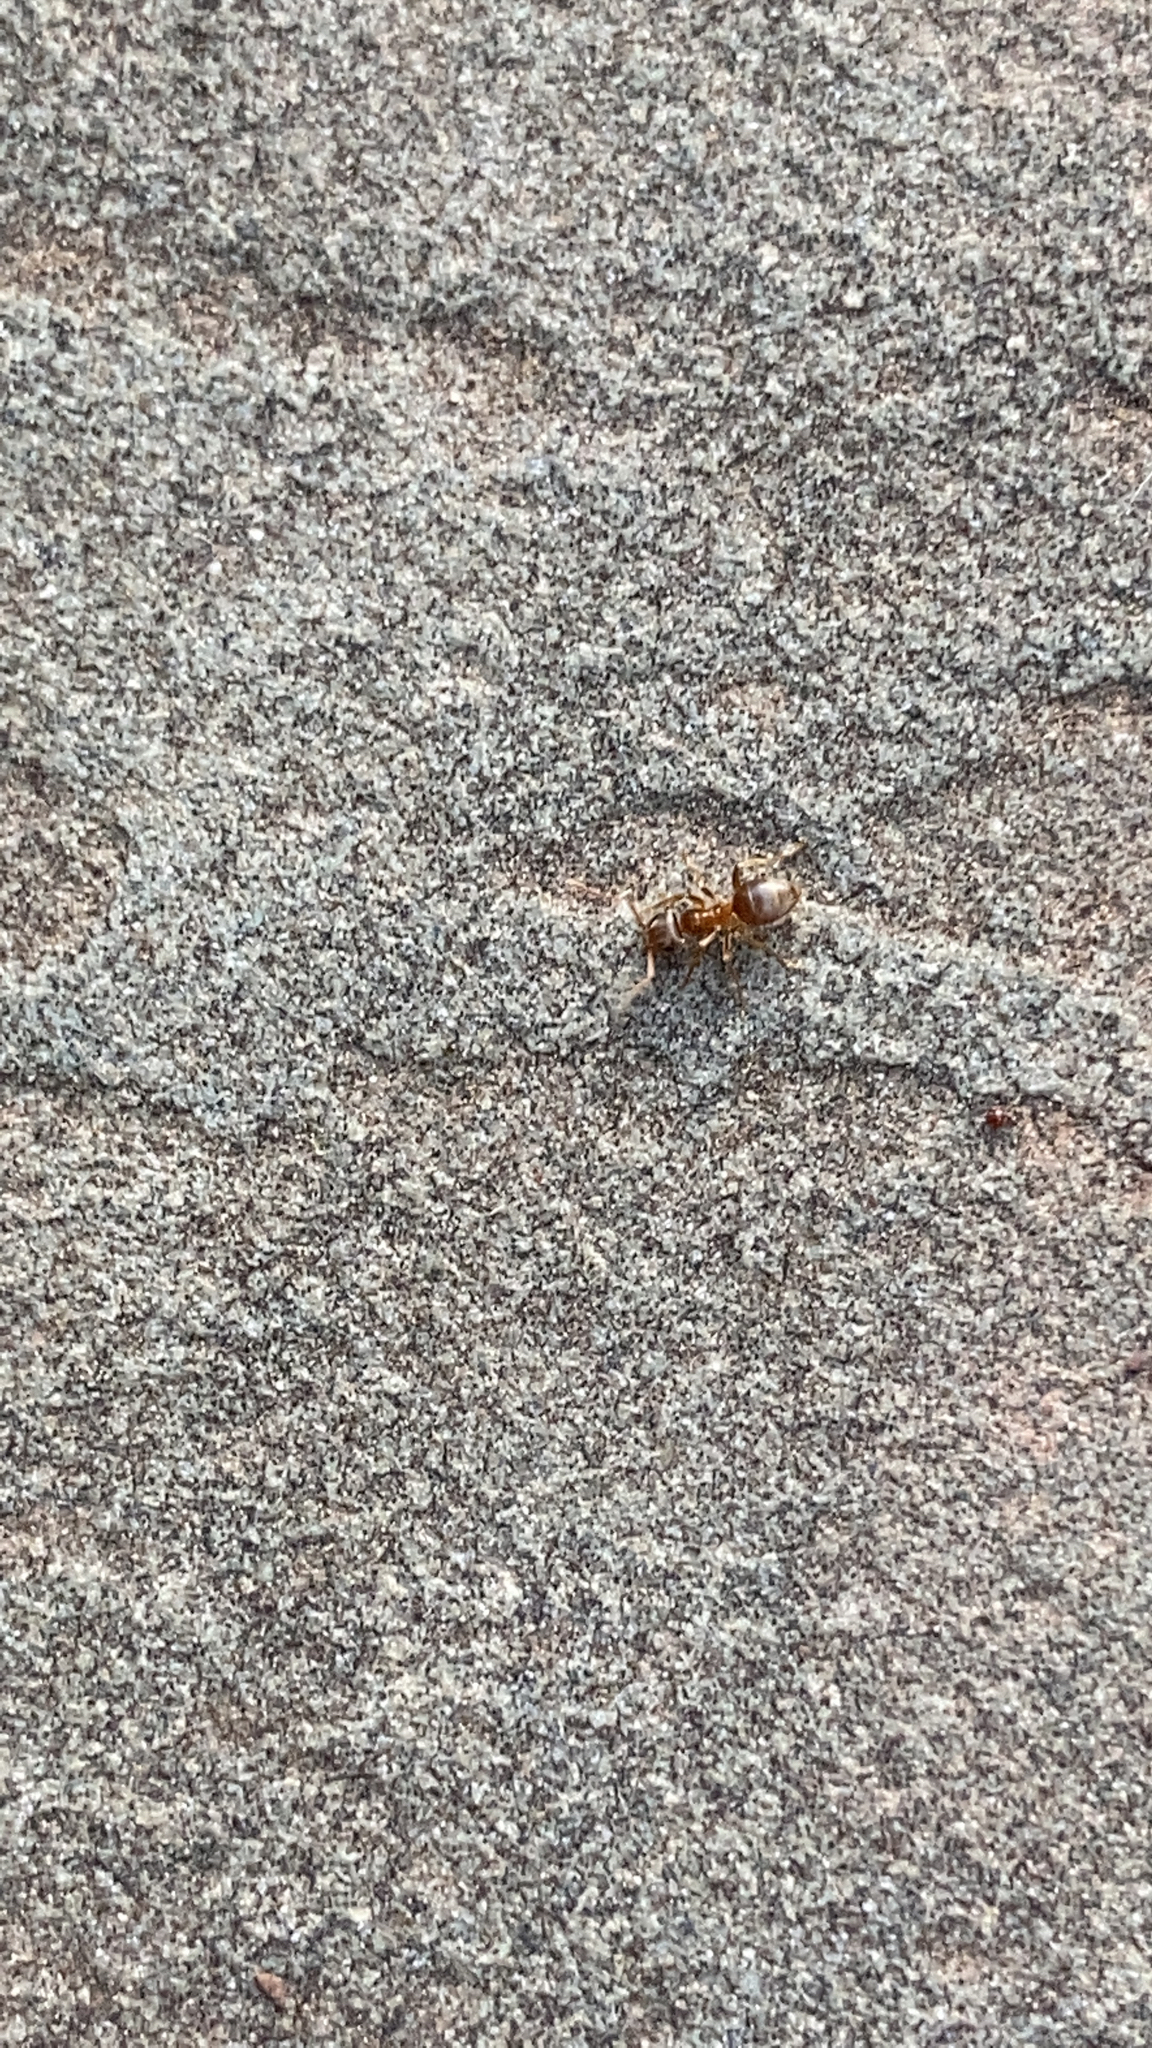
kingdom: Animalia
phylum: Arthropoda
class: Insecta
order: Hymenoptera
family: Formicidae
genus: Lasius
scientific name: Lasius neoniger
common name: Turfgrass ant
